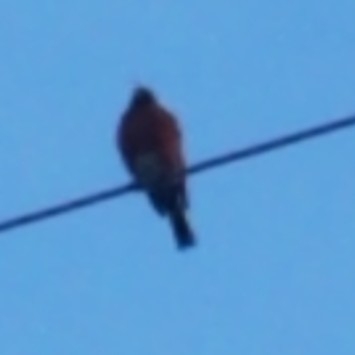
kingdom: Animalia
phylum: Chordata
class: Aves
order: Passeriformes
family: Turdidae
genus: Turdus
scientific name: Turdus migratorius
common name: American robin
